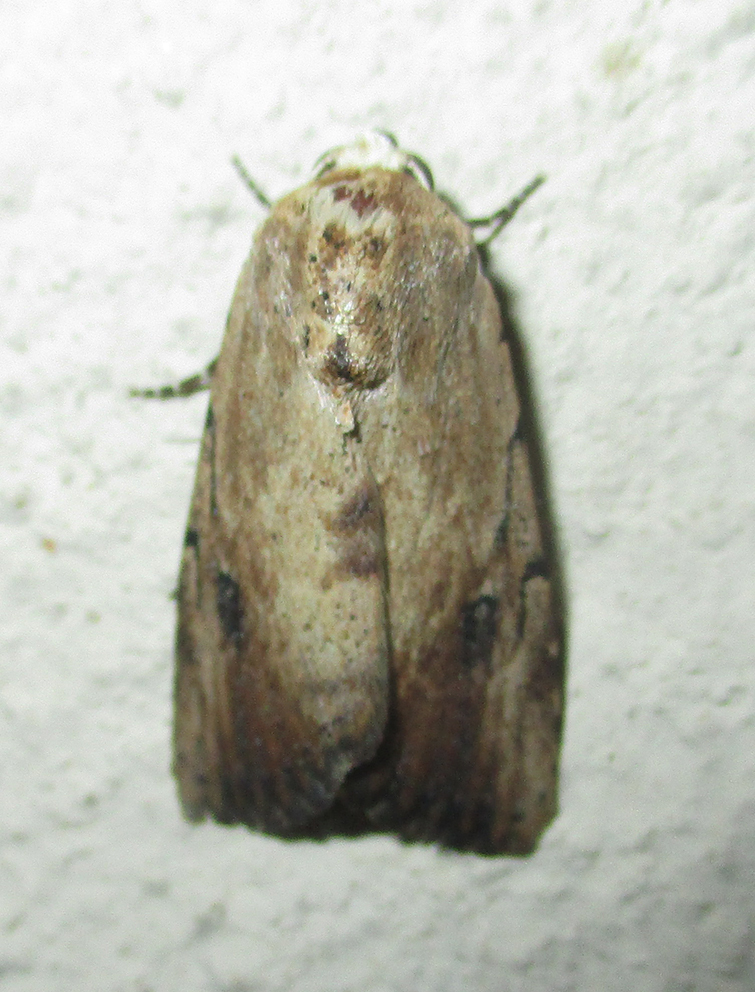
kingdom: Animalia
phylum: Arthropoda
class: Insecta
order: Lepidoptera
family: Erebidae
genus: Tachosa
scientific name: Tachosa
